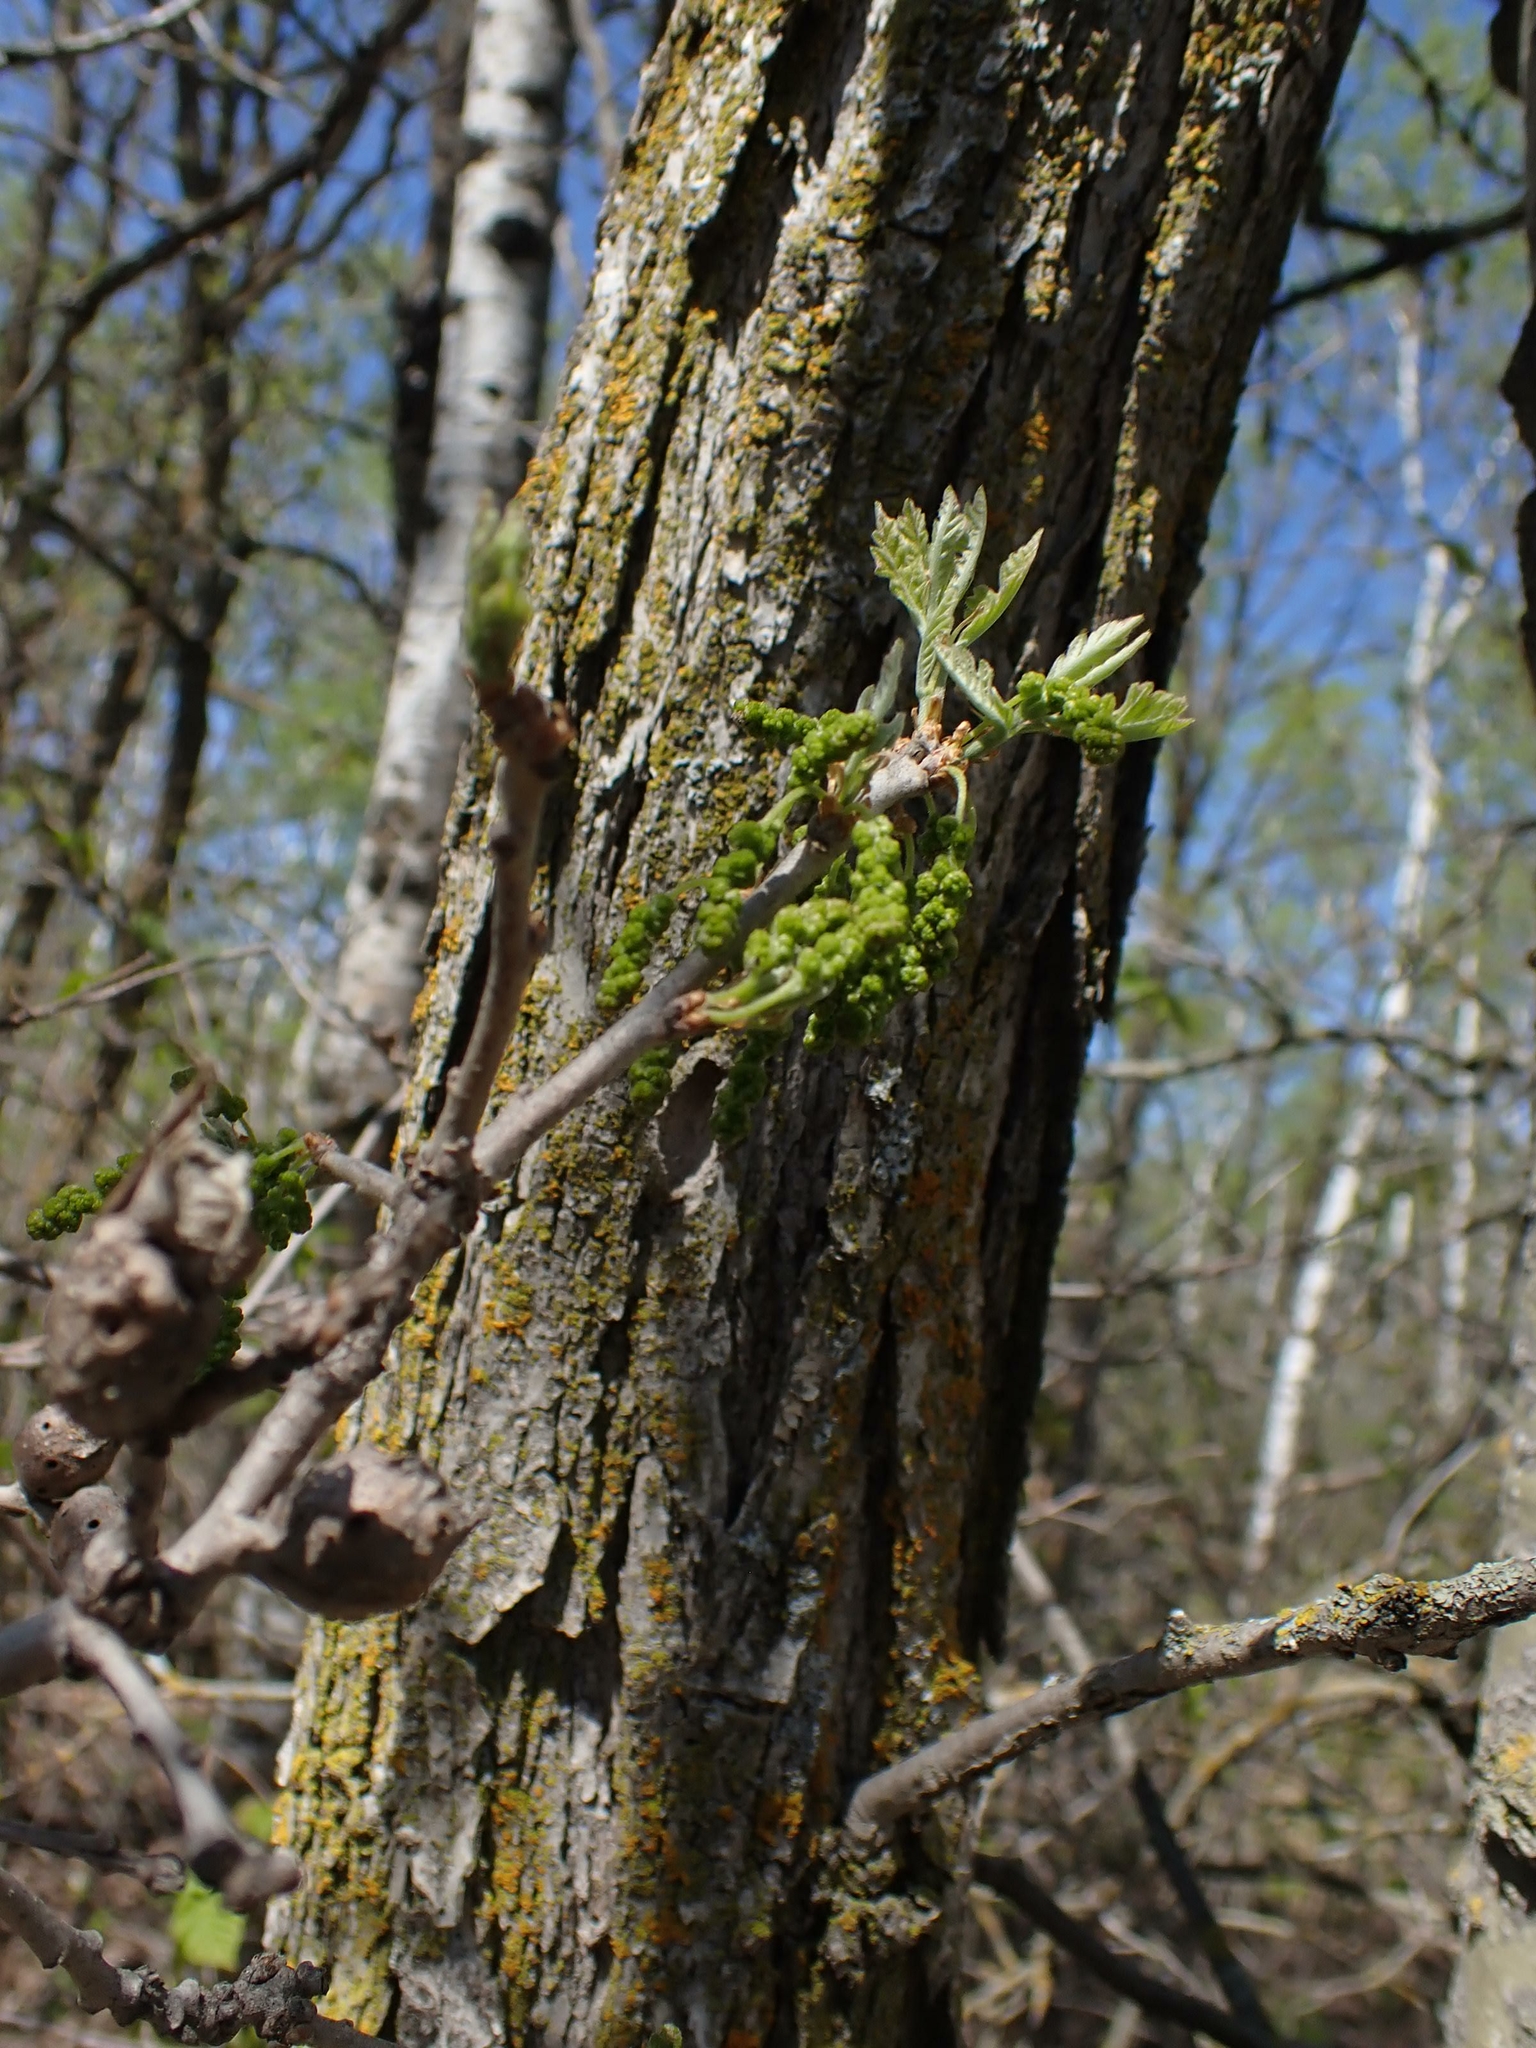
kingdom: Plantae
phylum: Tracheophyta
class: Magnoliopsida
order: Fagales
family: Fagaceae
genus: Quercus
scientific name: Quercus macrocarpa
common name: Bur oak
